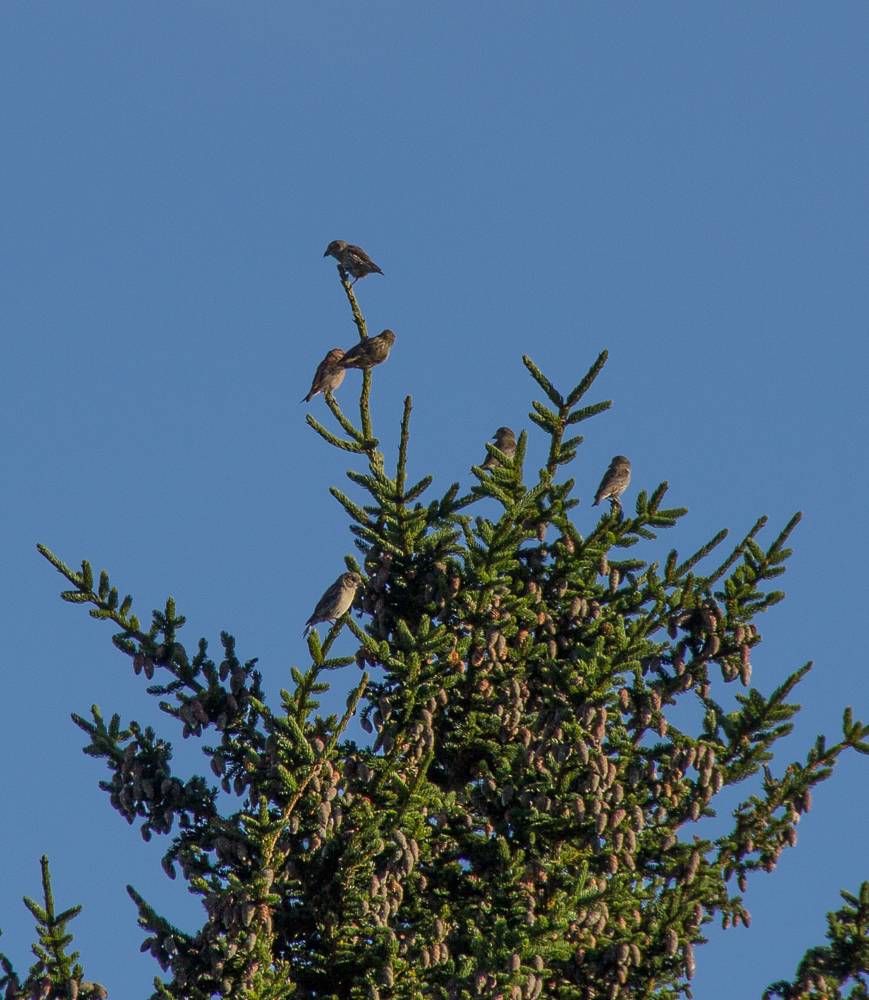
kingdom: Animalia
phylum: Chordata
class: Aves
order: Passeriformes
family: Fringillidae
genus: Loxia
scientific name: Loxia curvirostra
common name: Red crossbill
